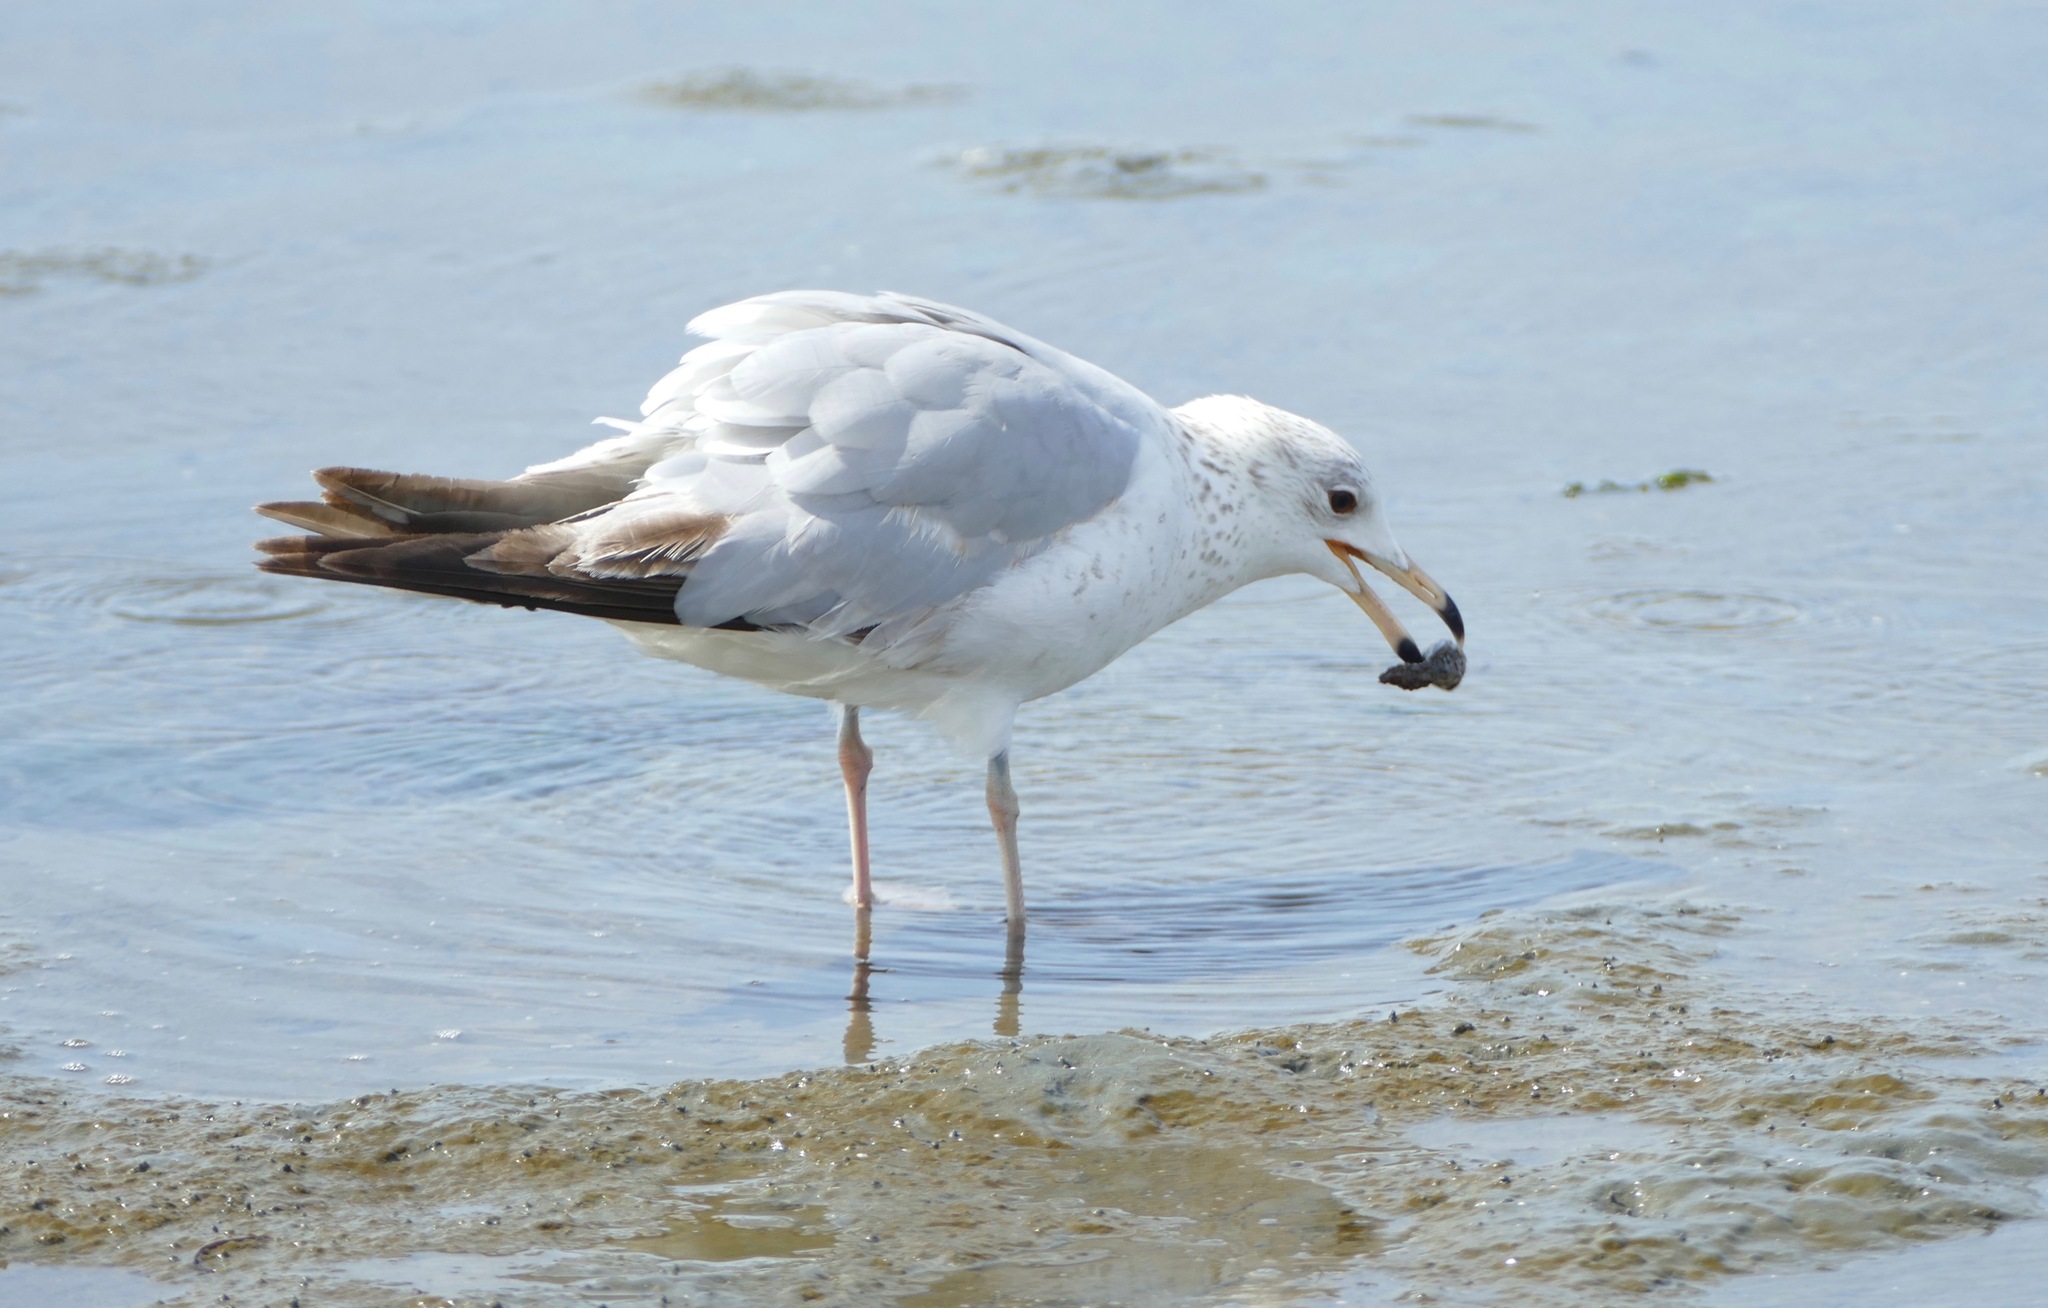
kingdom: Animalia
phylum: Chordata
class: Aves
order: Charadriiformes
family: Laridae
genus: Larus
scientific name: Larus argentatus
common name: Herring gull
